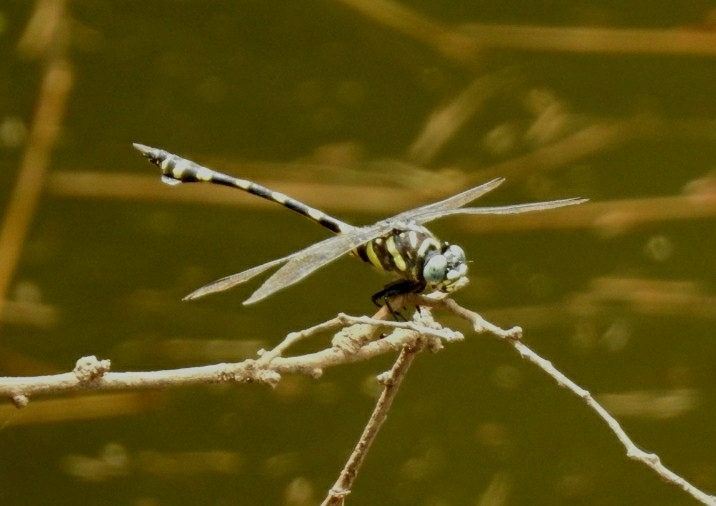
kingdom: Animalia
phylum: Arthropoda
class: Insecta
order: Odonata
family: Gomphidae
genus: Ictinogomphus
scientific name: Ictinogomphus rapax
